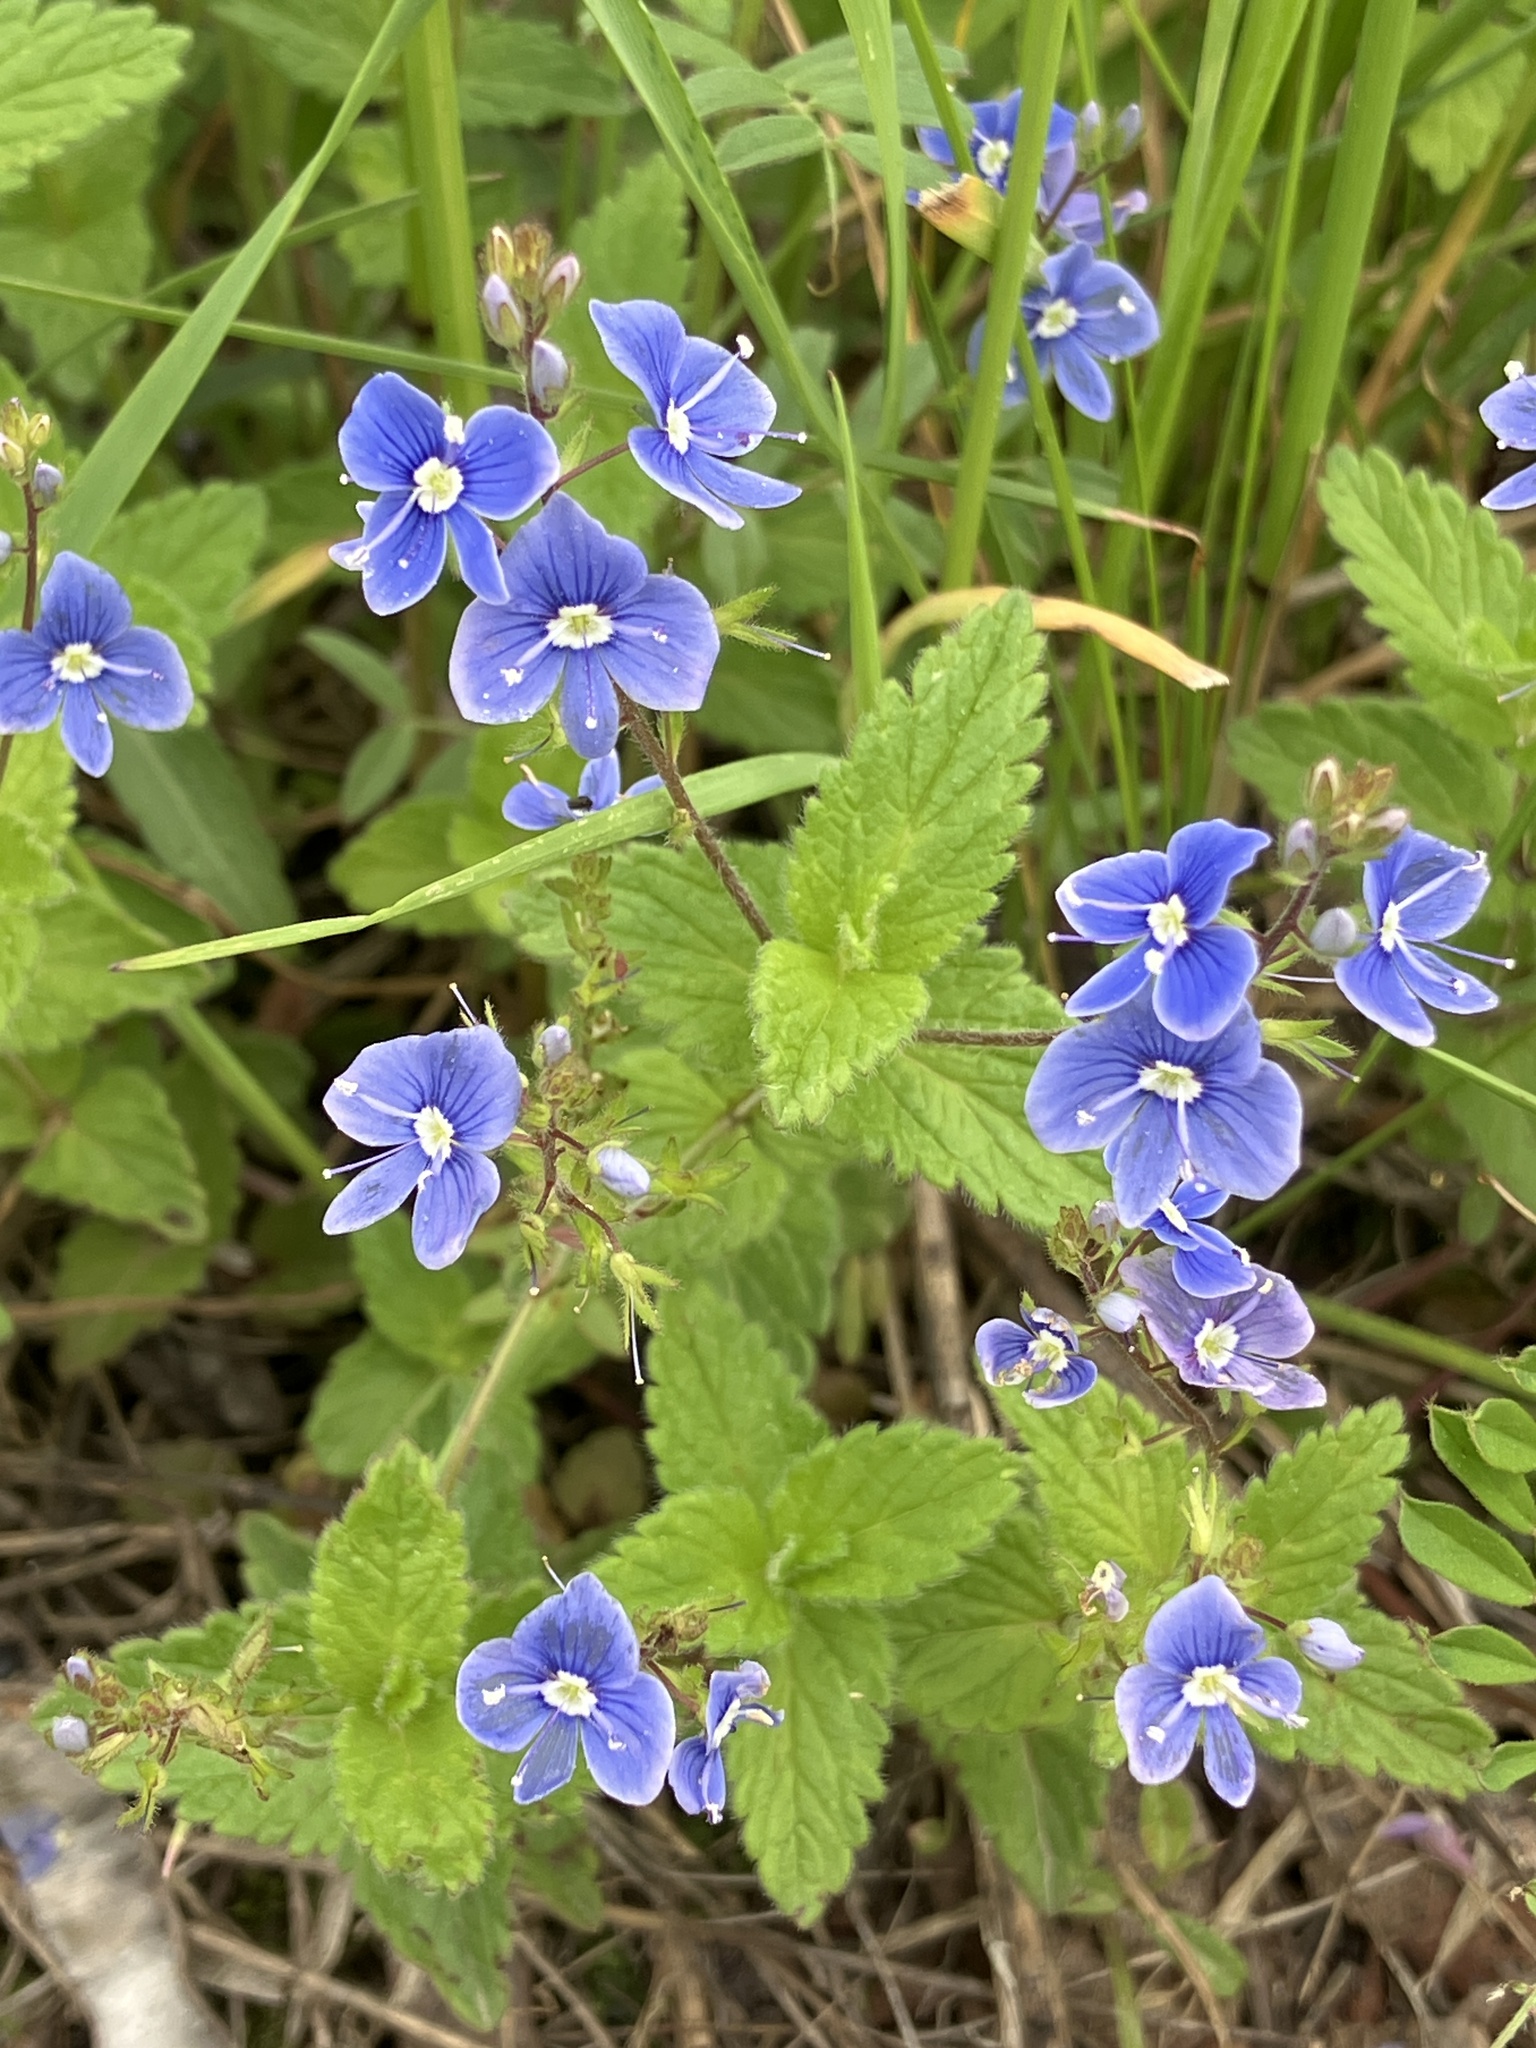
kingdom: Plantae
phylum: Tracheophyta
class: Magnoliopsida
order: Lamiales
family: Plantaginaceae
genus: Veronica
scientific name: Veronica chamaedrys
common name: Germander speedwell
